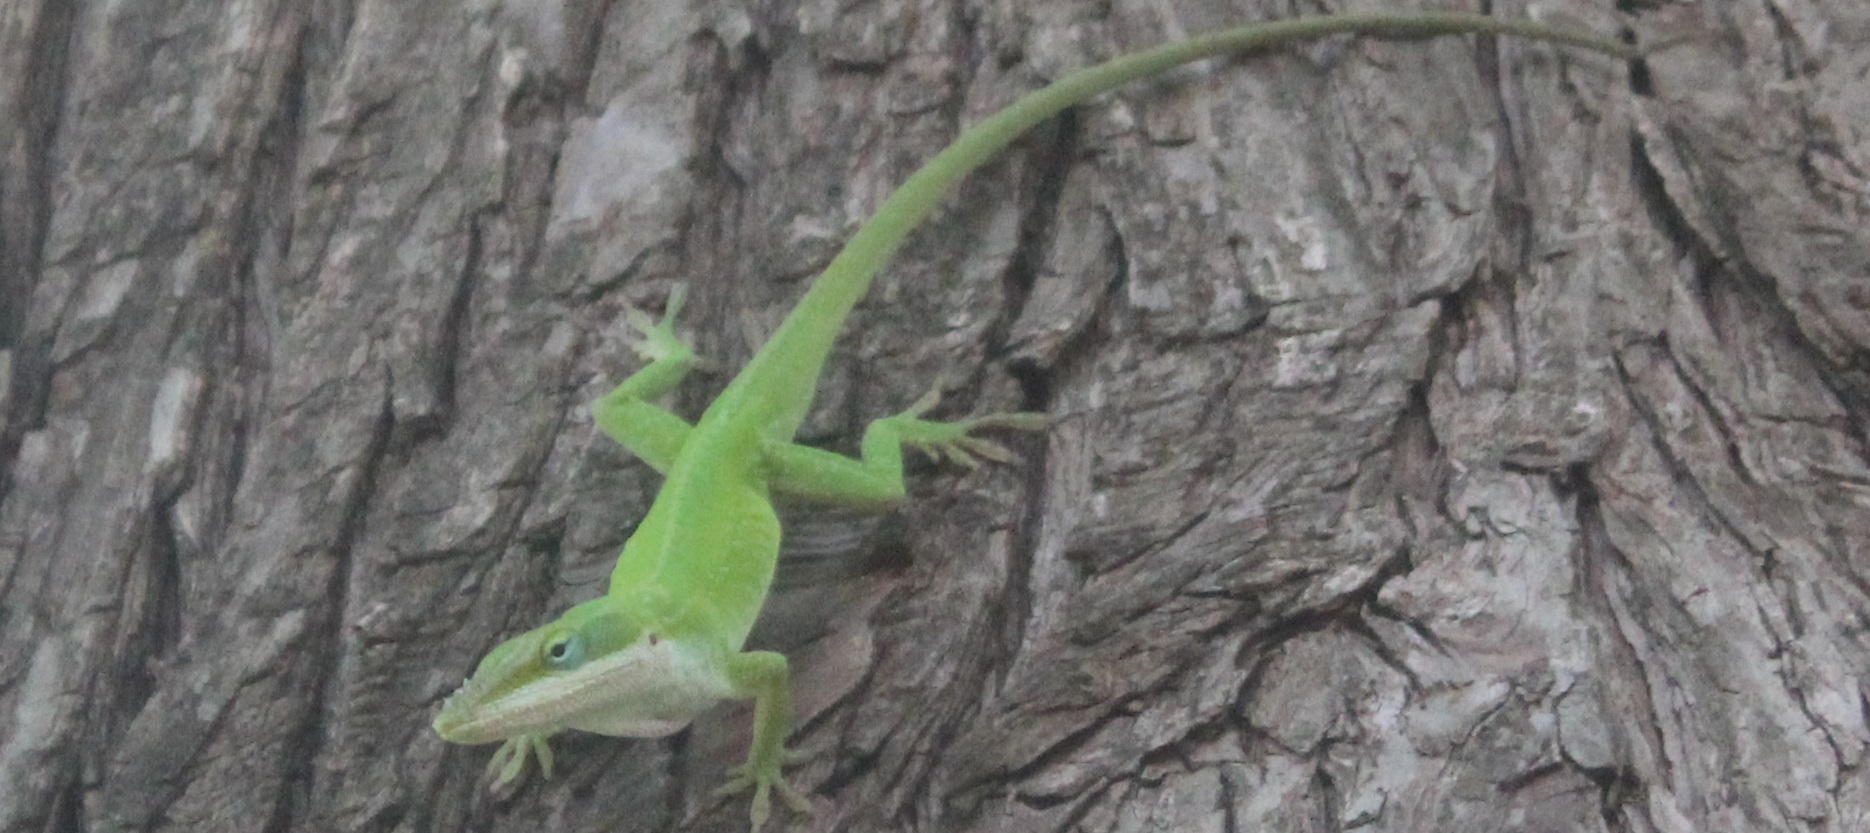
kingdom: Animalia
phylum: Chordata
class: Squamata
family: Dactyloidae
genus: Anolis
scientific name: Anolis carolinensis
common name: Green anole
